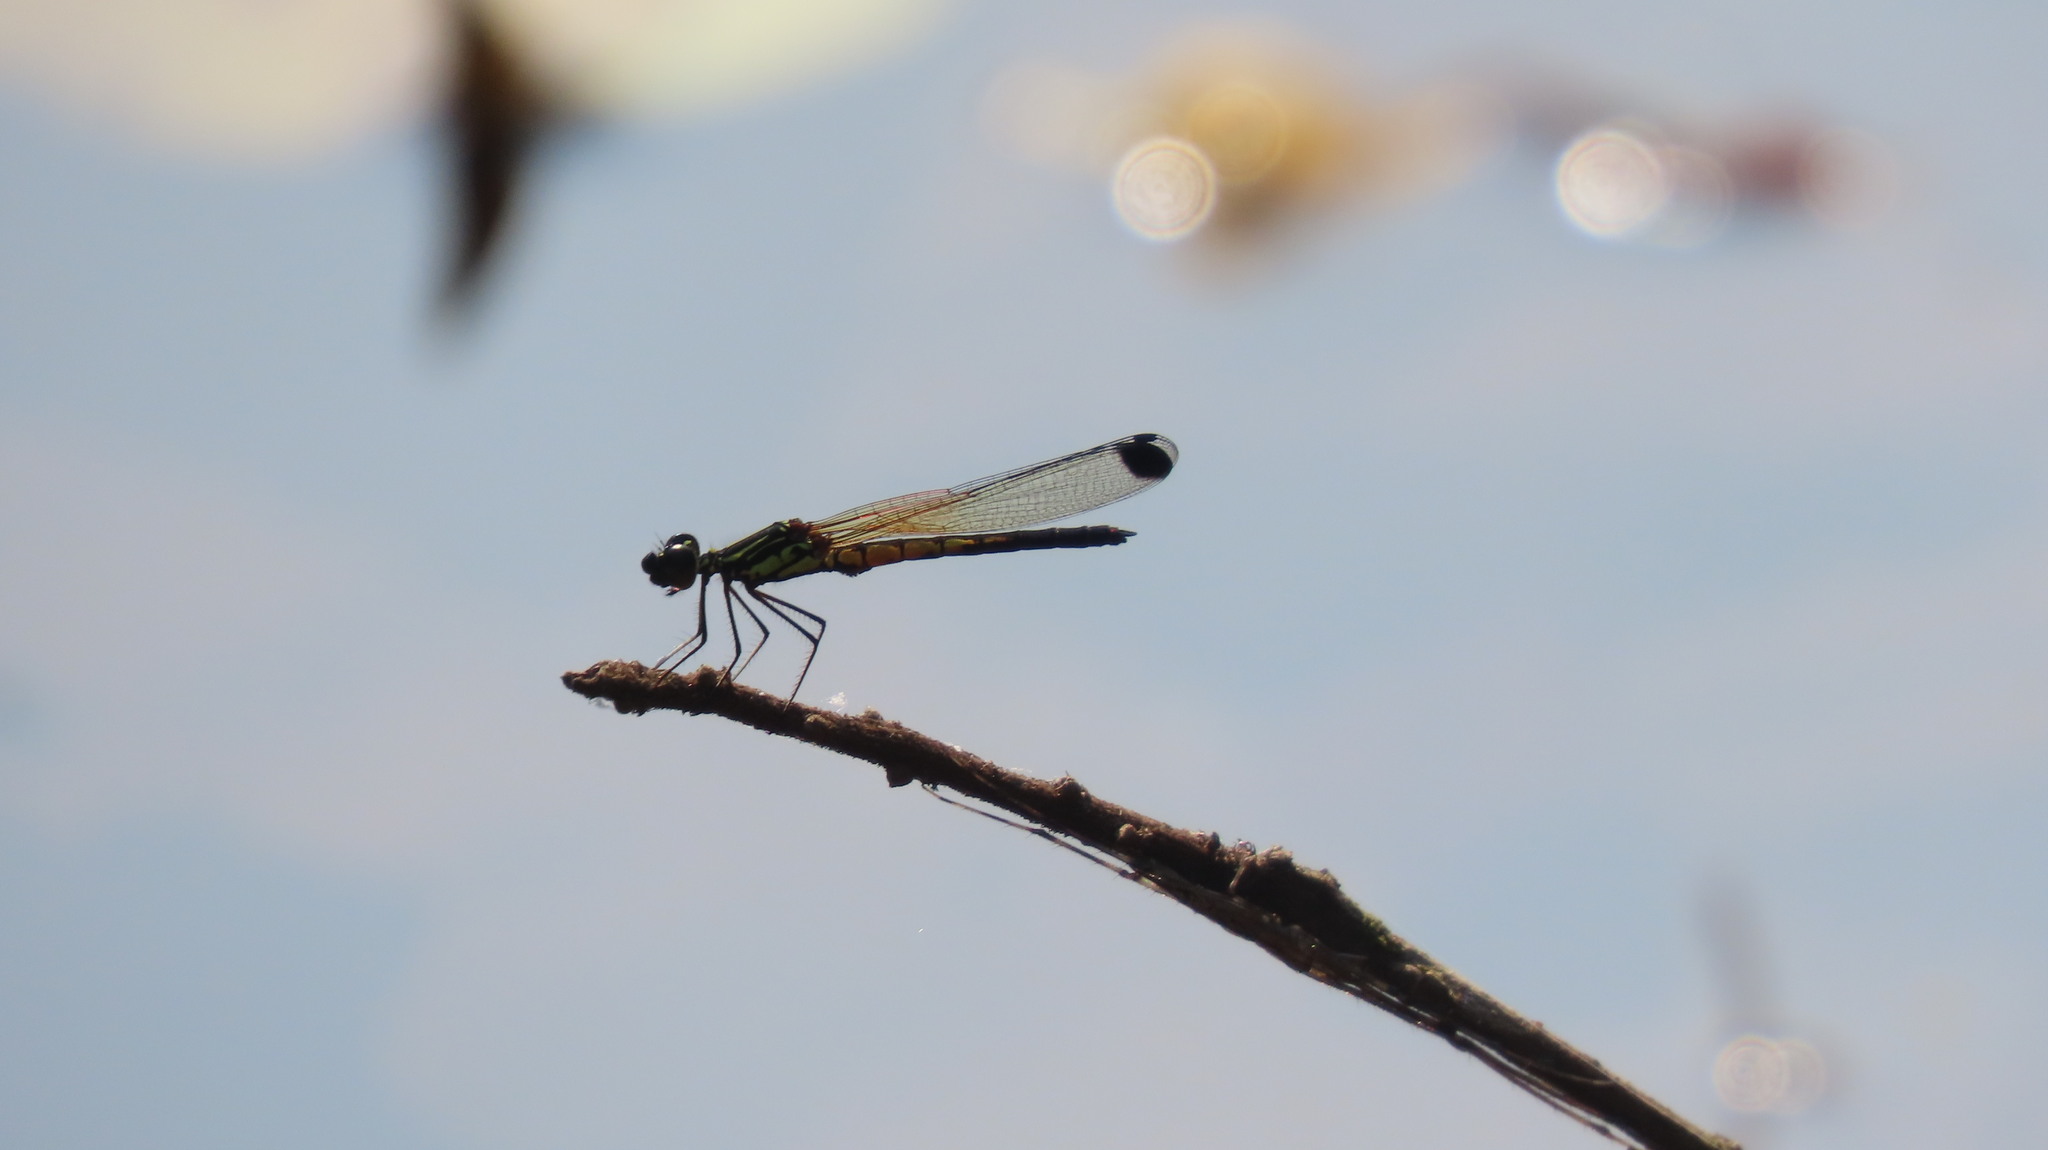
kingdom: Animalia
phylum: Arthropoda
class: Insecta
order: Odonata
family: Chlorocyphidae
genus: Libellago
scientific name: Libellago indica
